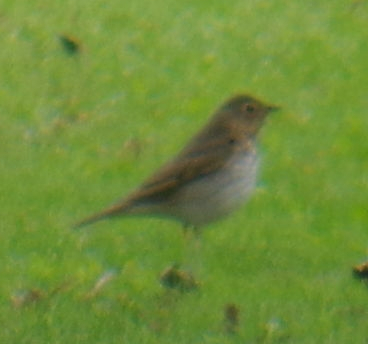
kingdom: Animalia
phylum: Chordata
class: Aves
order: Passeriformes
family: Turdidae
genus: Catharus
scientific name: Catharus ustulatus
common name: Swainson's thrush
